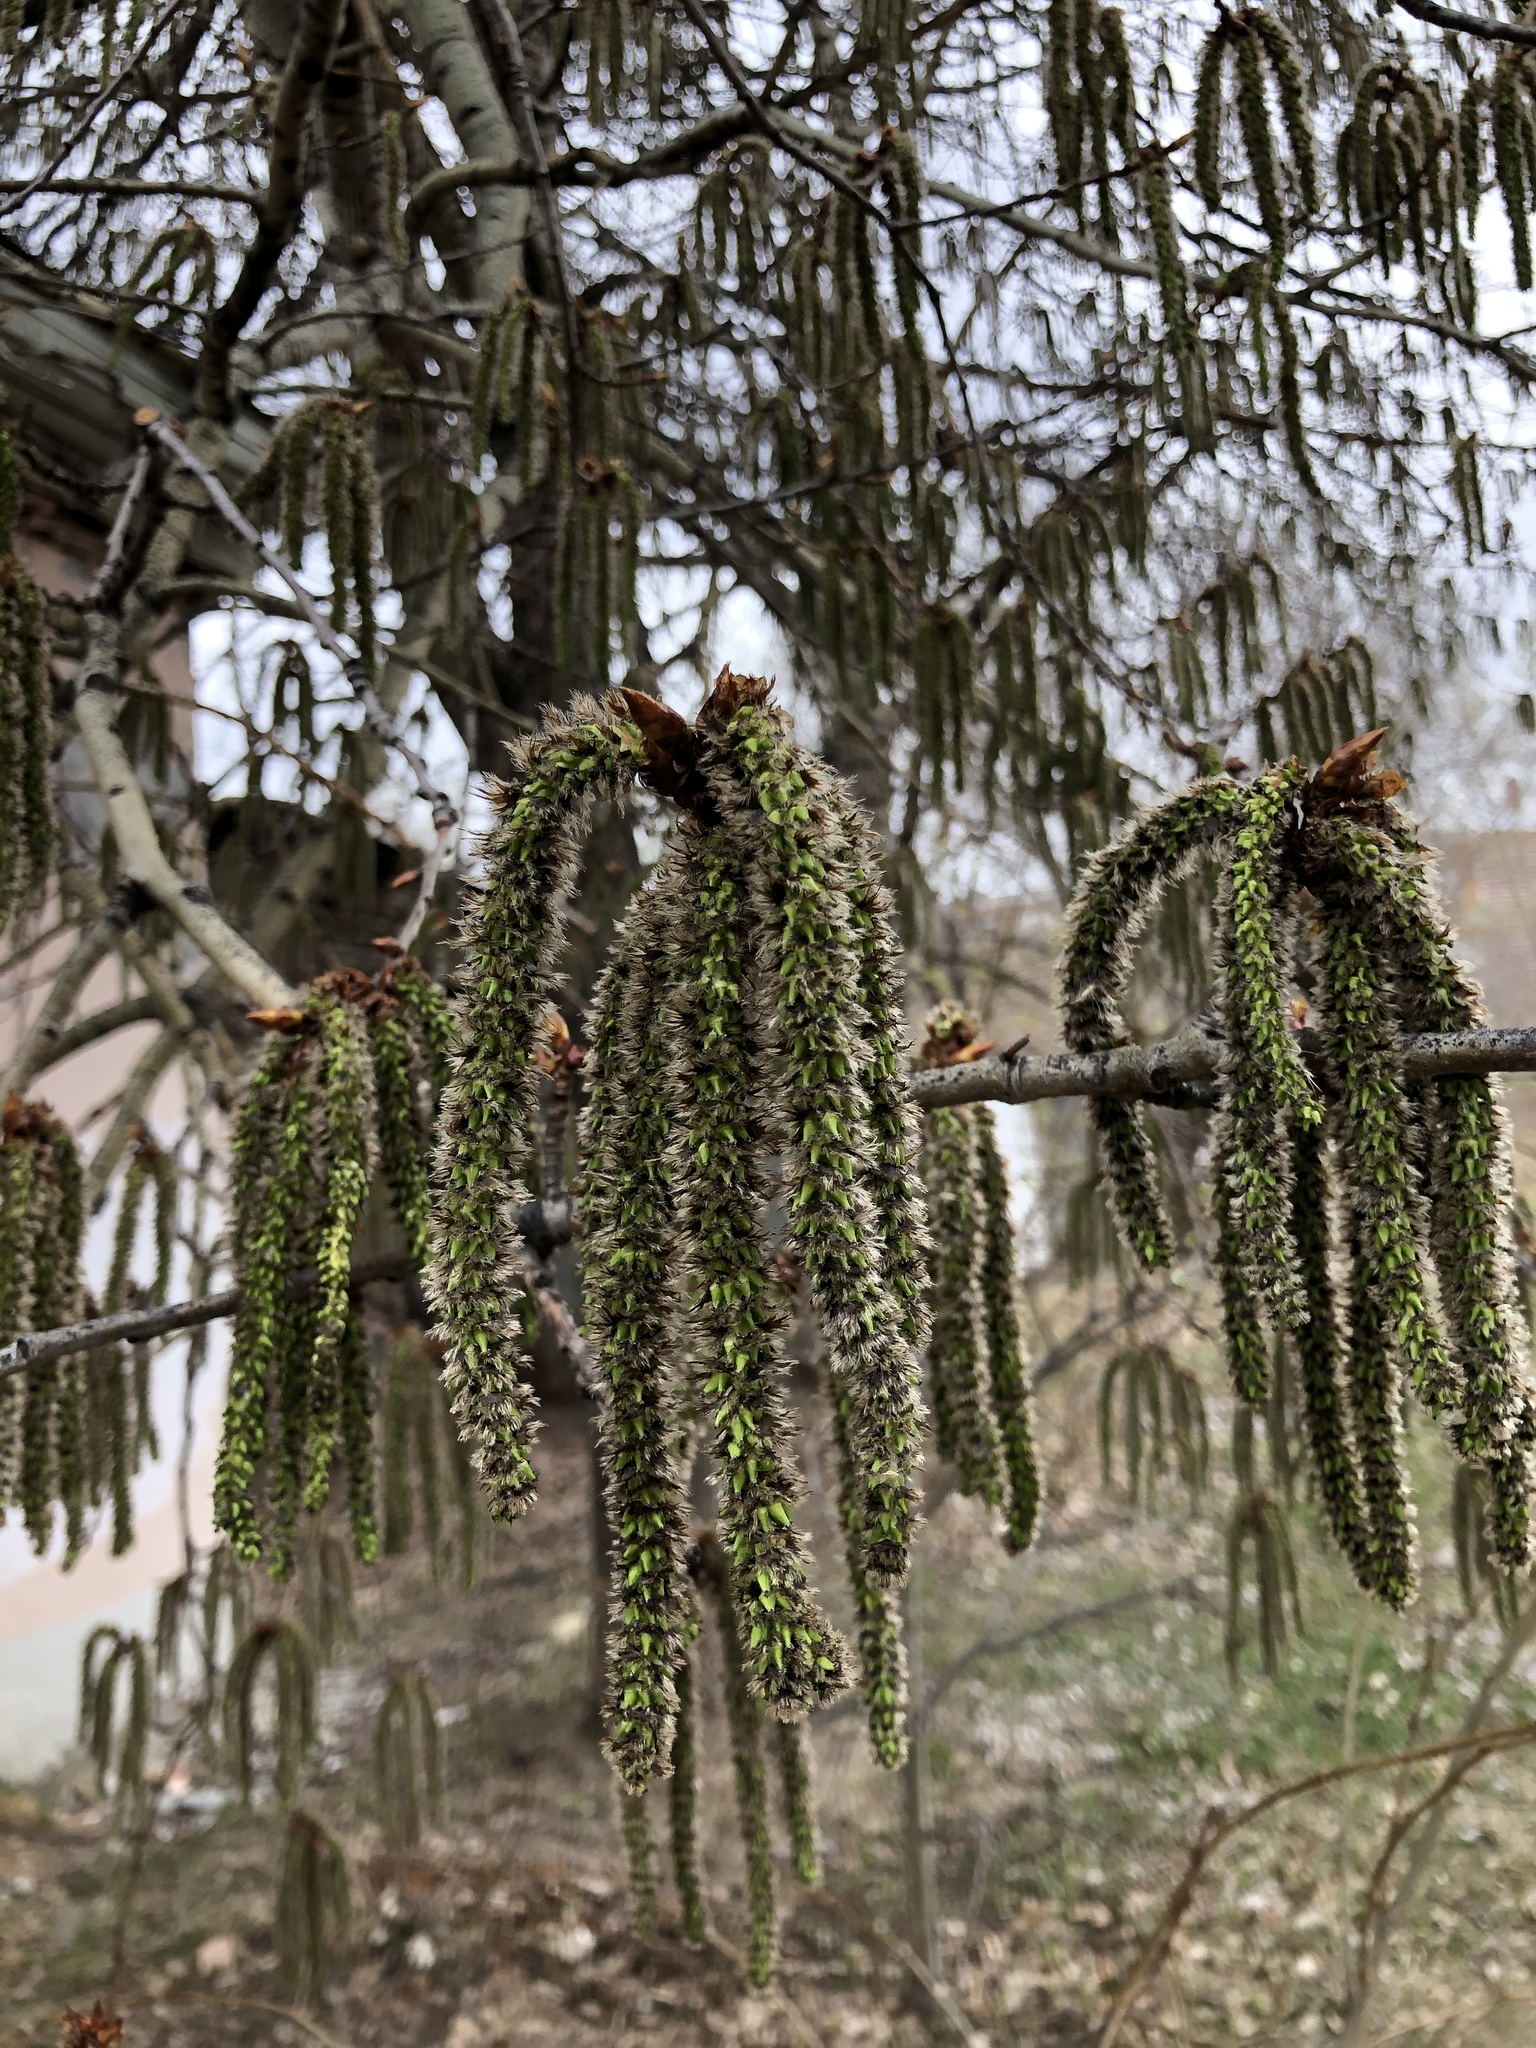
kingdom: Plantae
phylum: Tracheophyta
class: Magnoliopsida
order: Malpighiales
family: Salicaceae
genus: Populus
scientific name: Populus tremula
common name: European aspen
